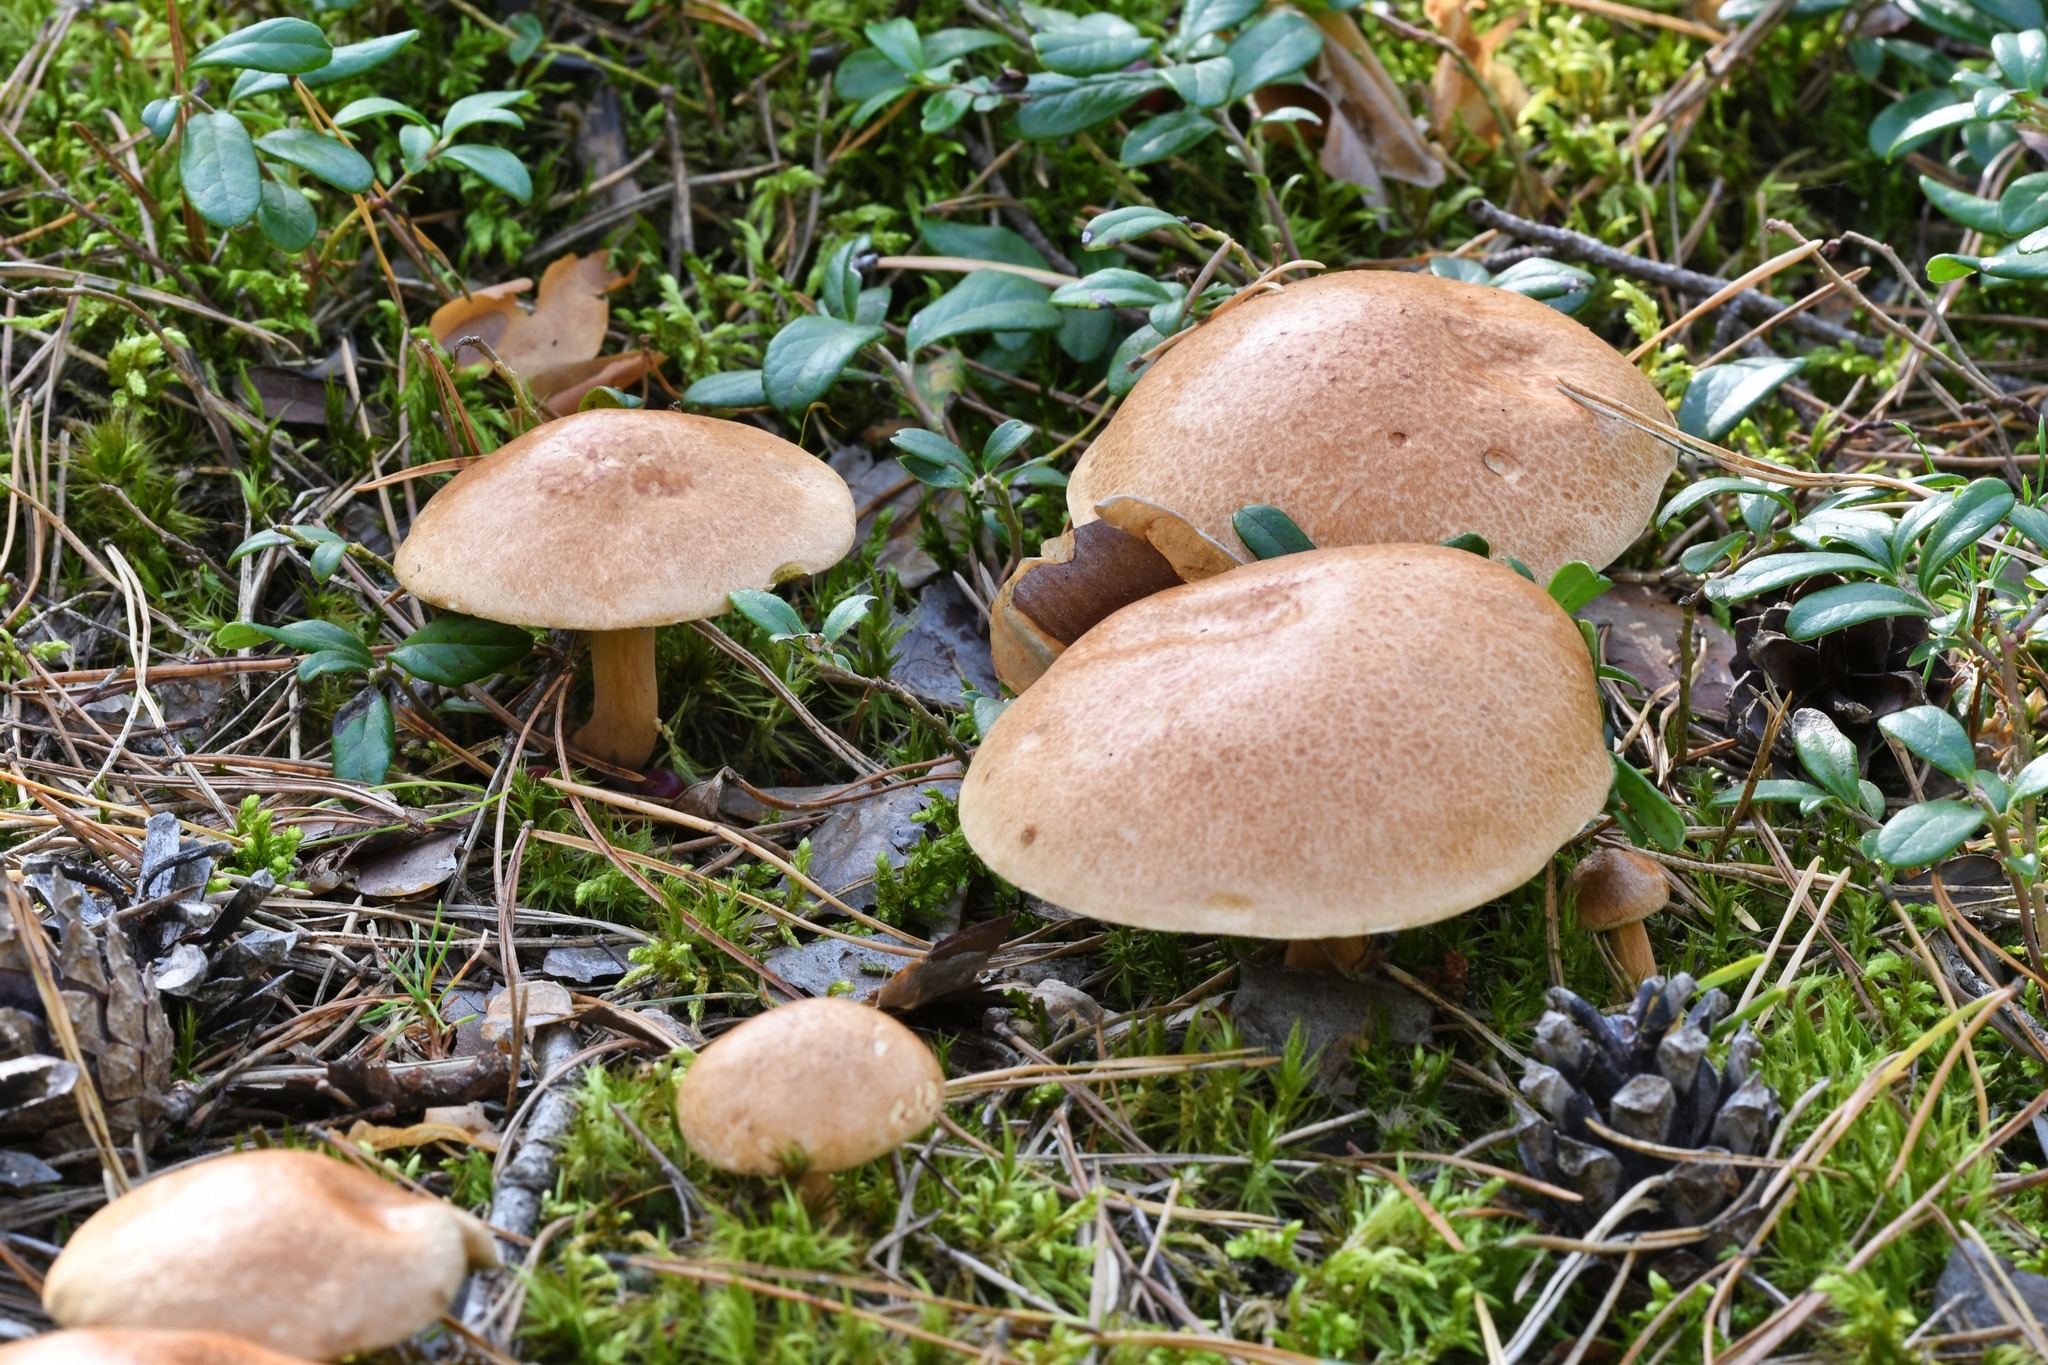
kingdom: Fungi
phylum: Basidiomycota
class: Agaricomycetes
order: Boletales
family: Suillaceae
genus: Suillus
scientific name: Suillus variegatus
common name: Velvet bolete
